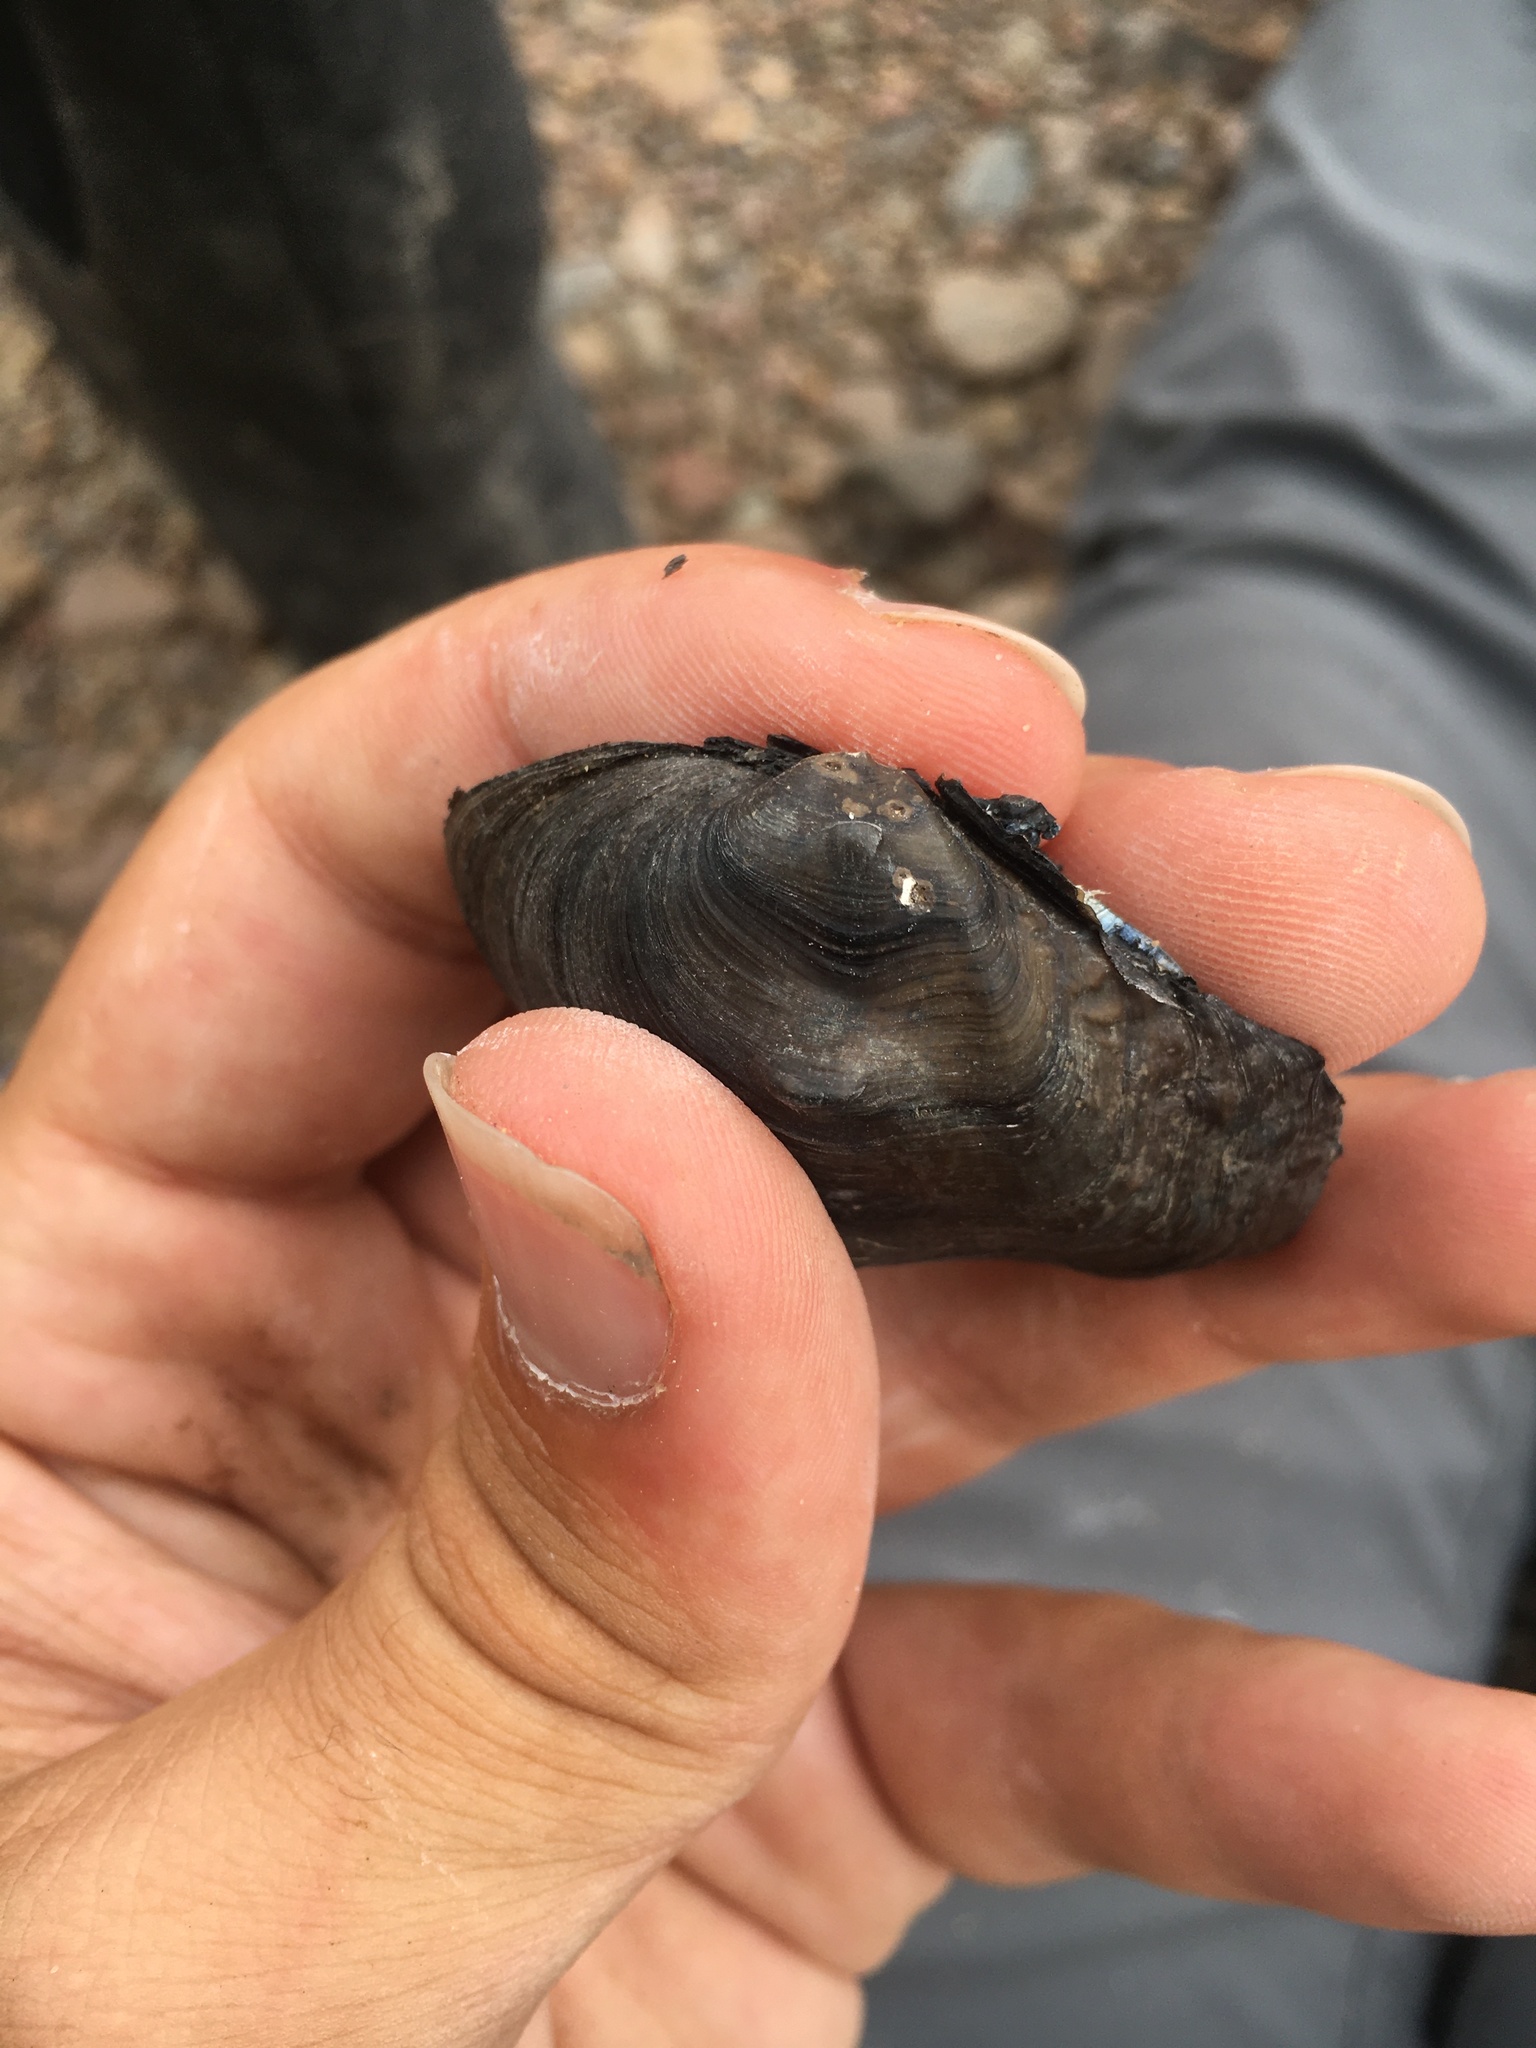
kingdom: Animalia
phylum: Mollusca
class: Bivalvia
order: Unionida
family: Unionidae
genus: Obliquaria
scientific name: Obliquaria reflexa
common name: Threehorn wartyback
